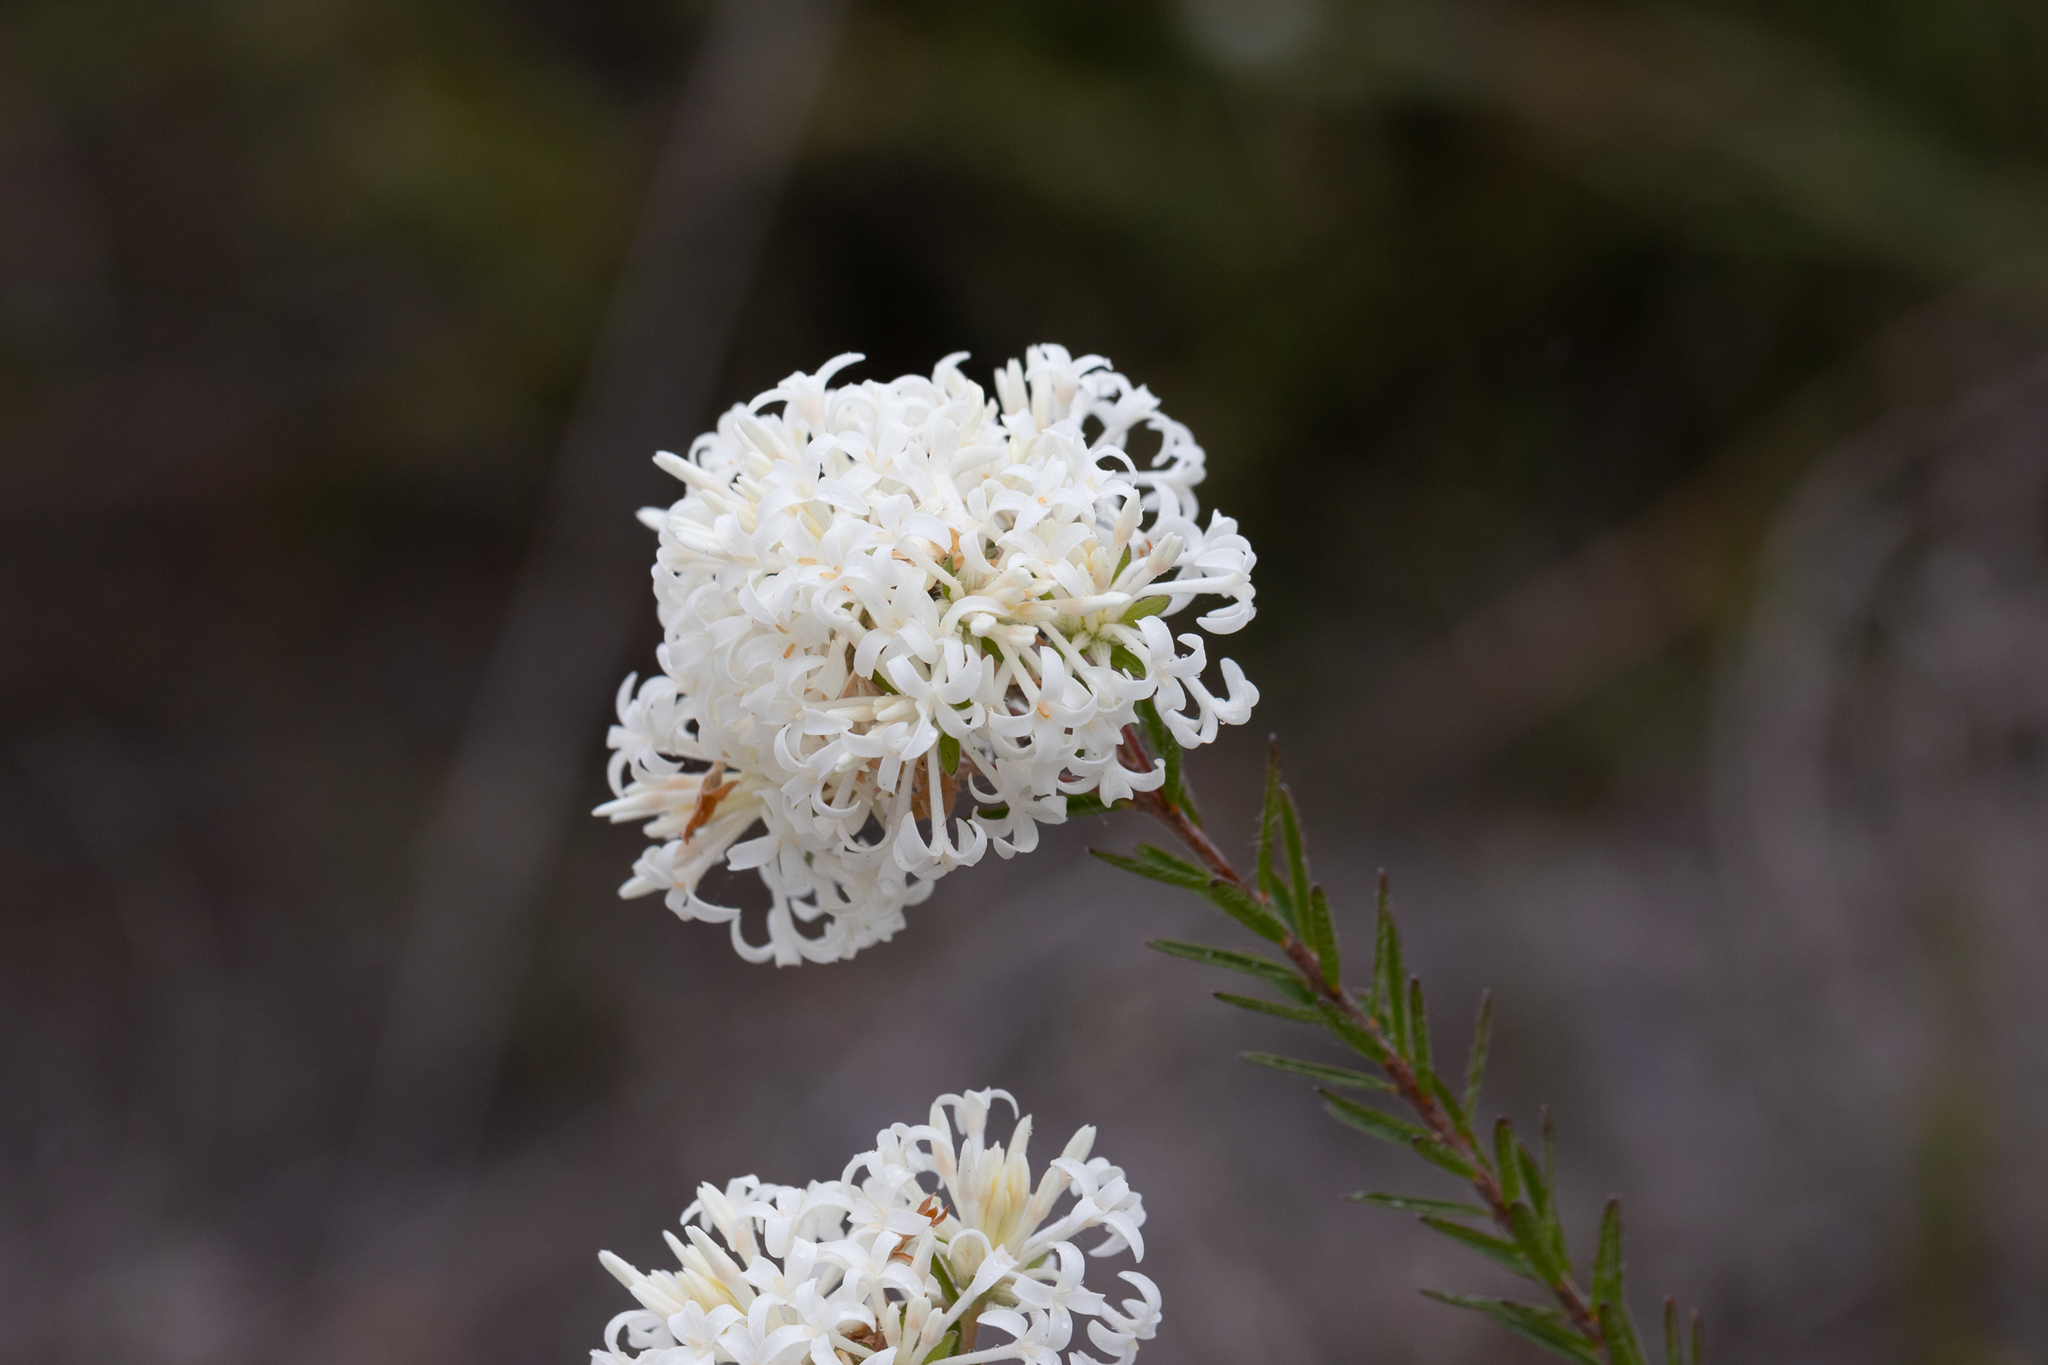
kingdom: Plantae
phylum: Tracheophyta
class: Magnoliopsida
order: Malvales
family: Thymelaeaceae
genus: Pimelea
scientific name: Pimelea longiflora
